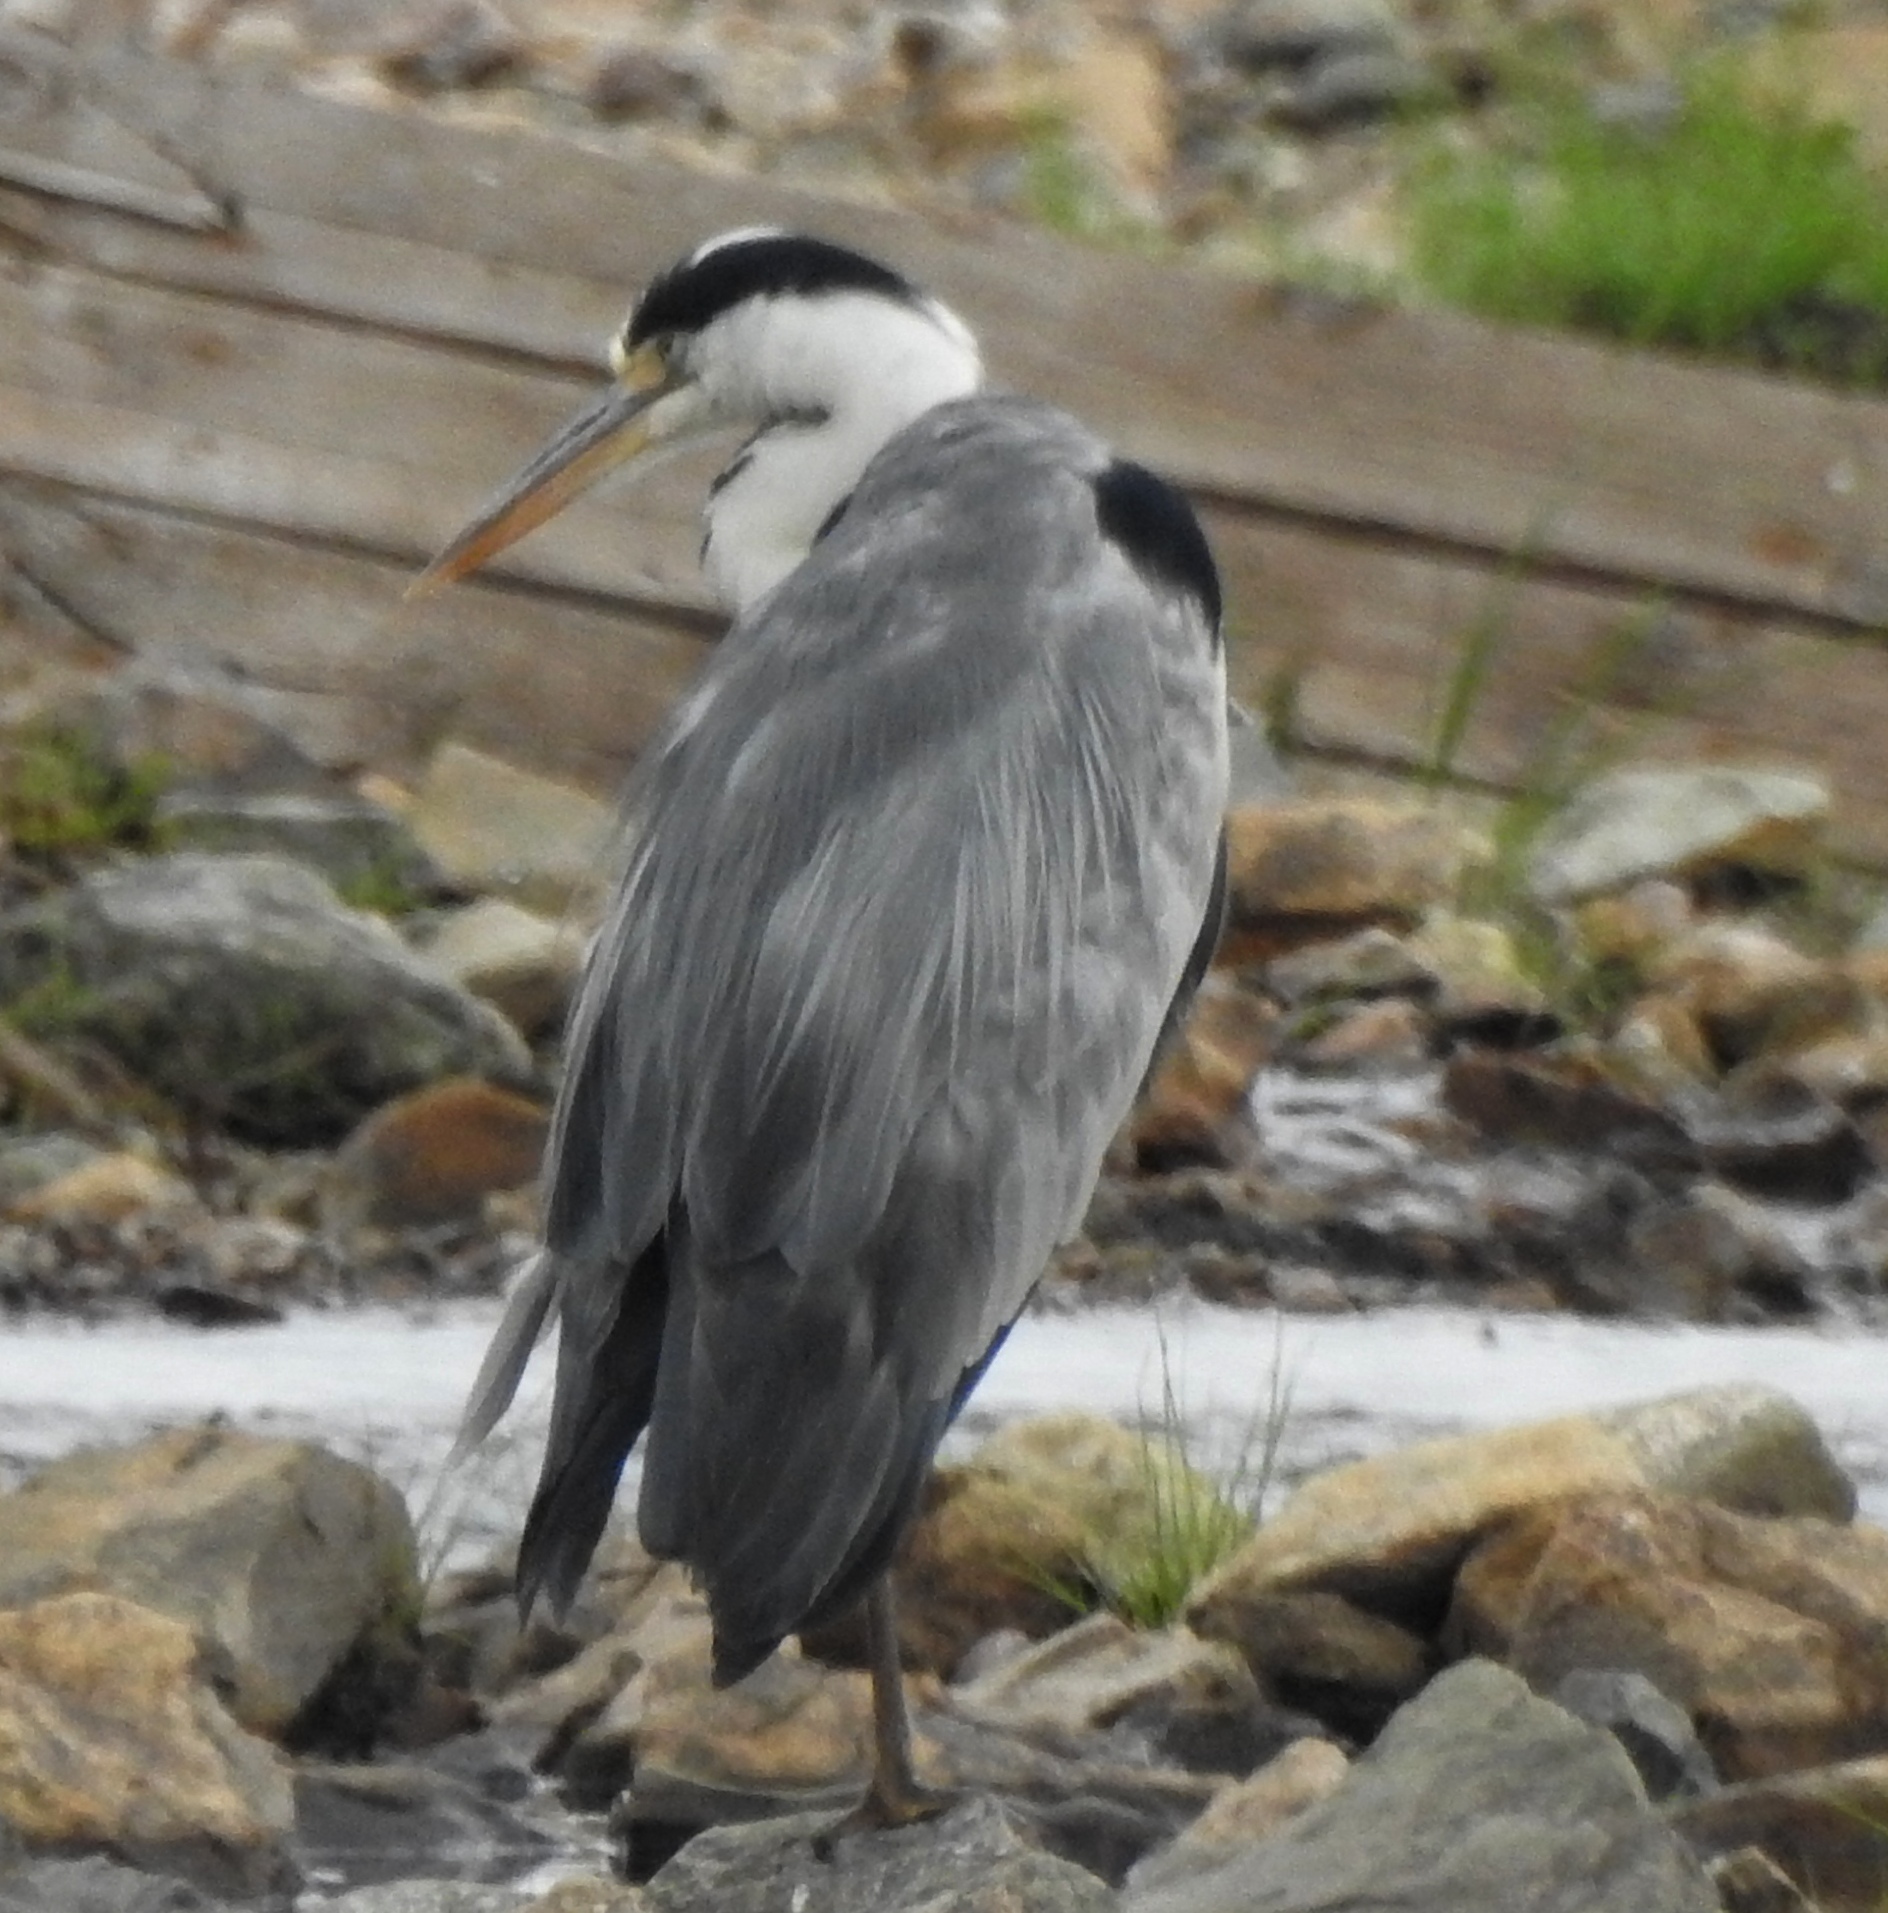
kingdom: Animalia
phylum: Chordata
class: Aves
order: Pelecaniformes
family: Ardeidae
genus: Ardea
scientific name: Ardea cinerea
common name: Grey heron
